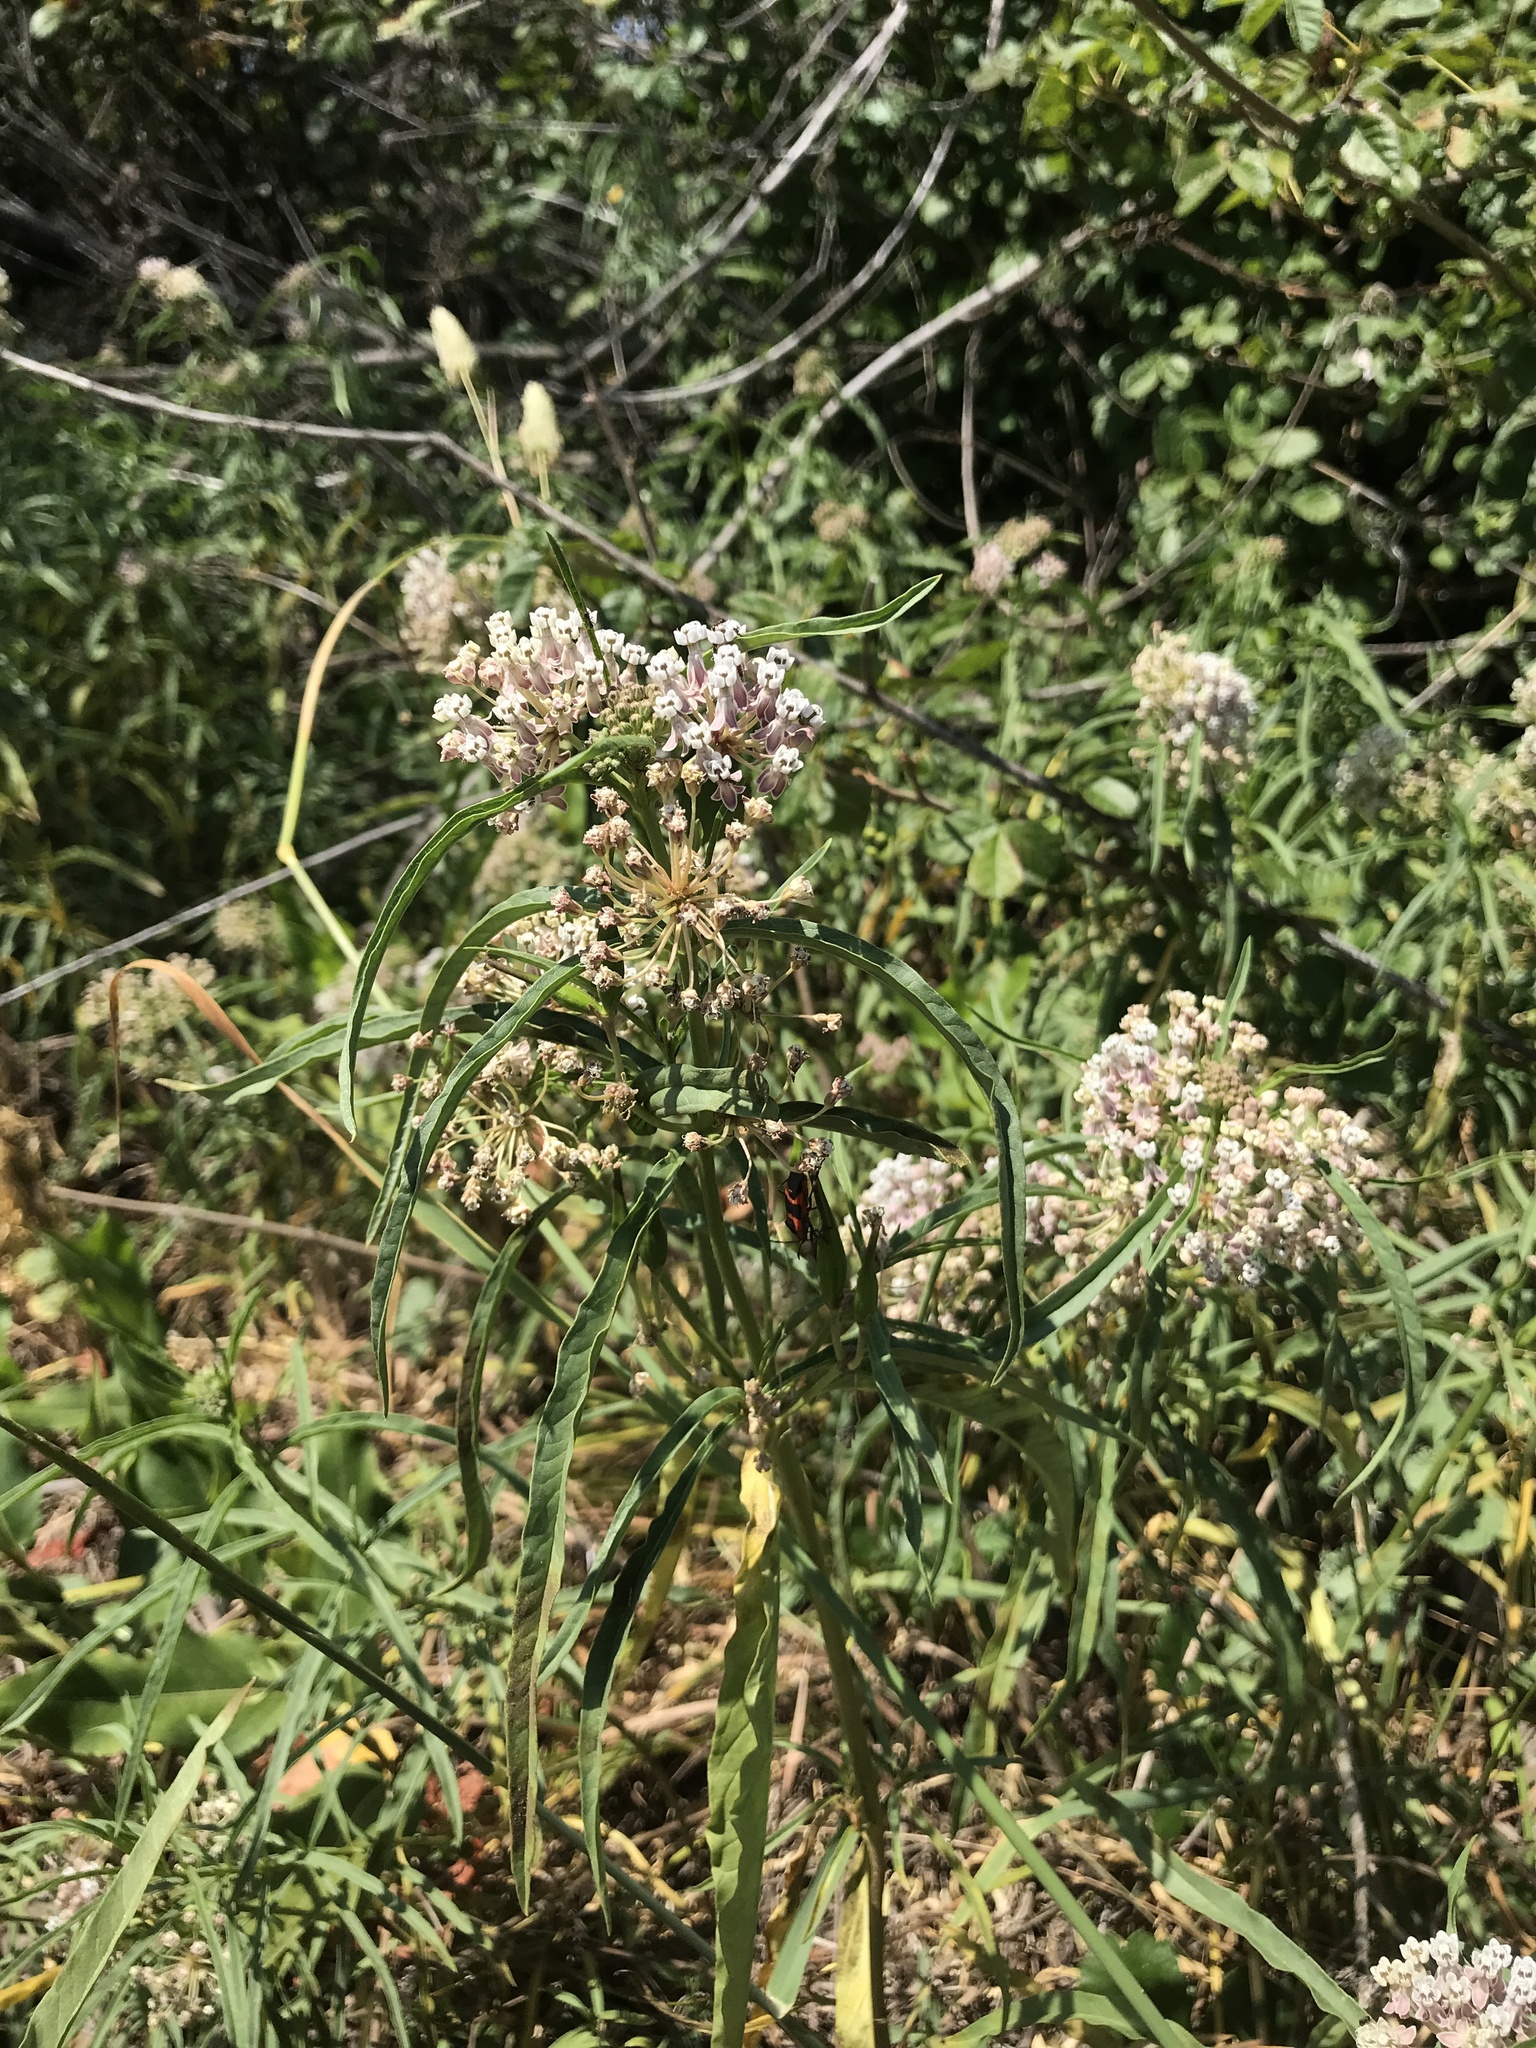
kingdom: Plantae
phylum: Tracheophyta
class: Magnoliopsida
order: Gentianales
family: Apocynaceae
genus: Asclepias
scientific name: Asclepias fascicularis
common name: Mexican milkweed
